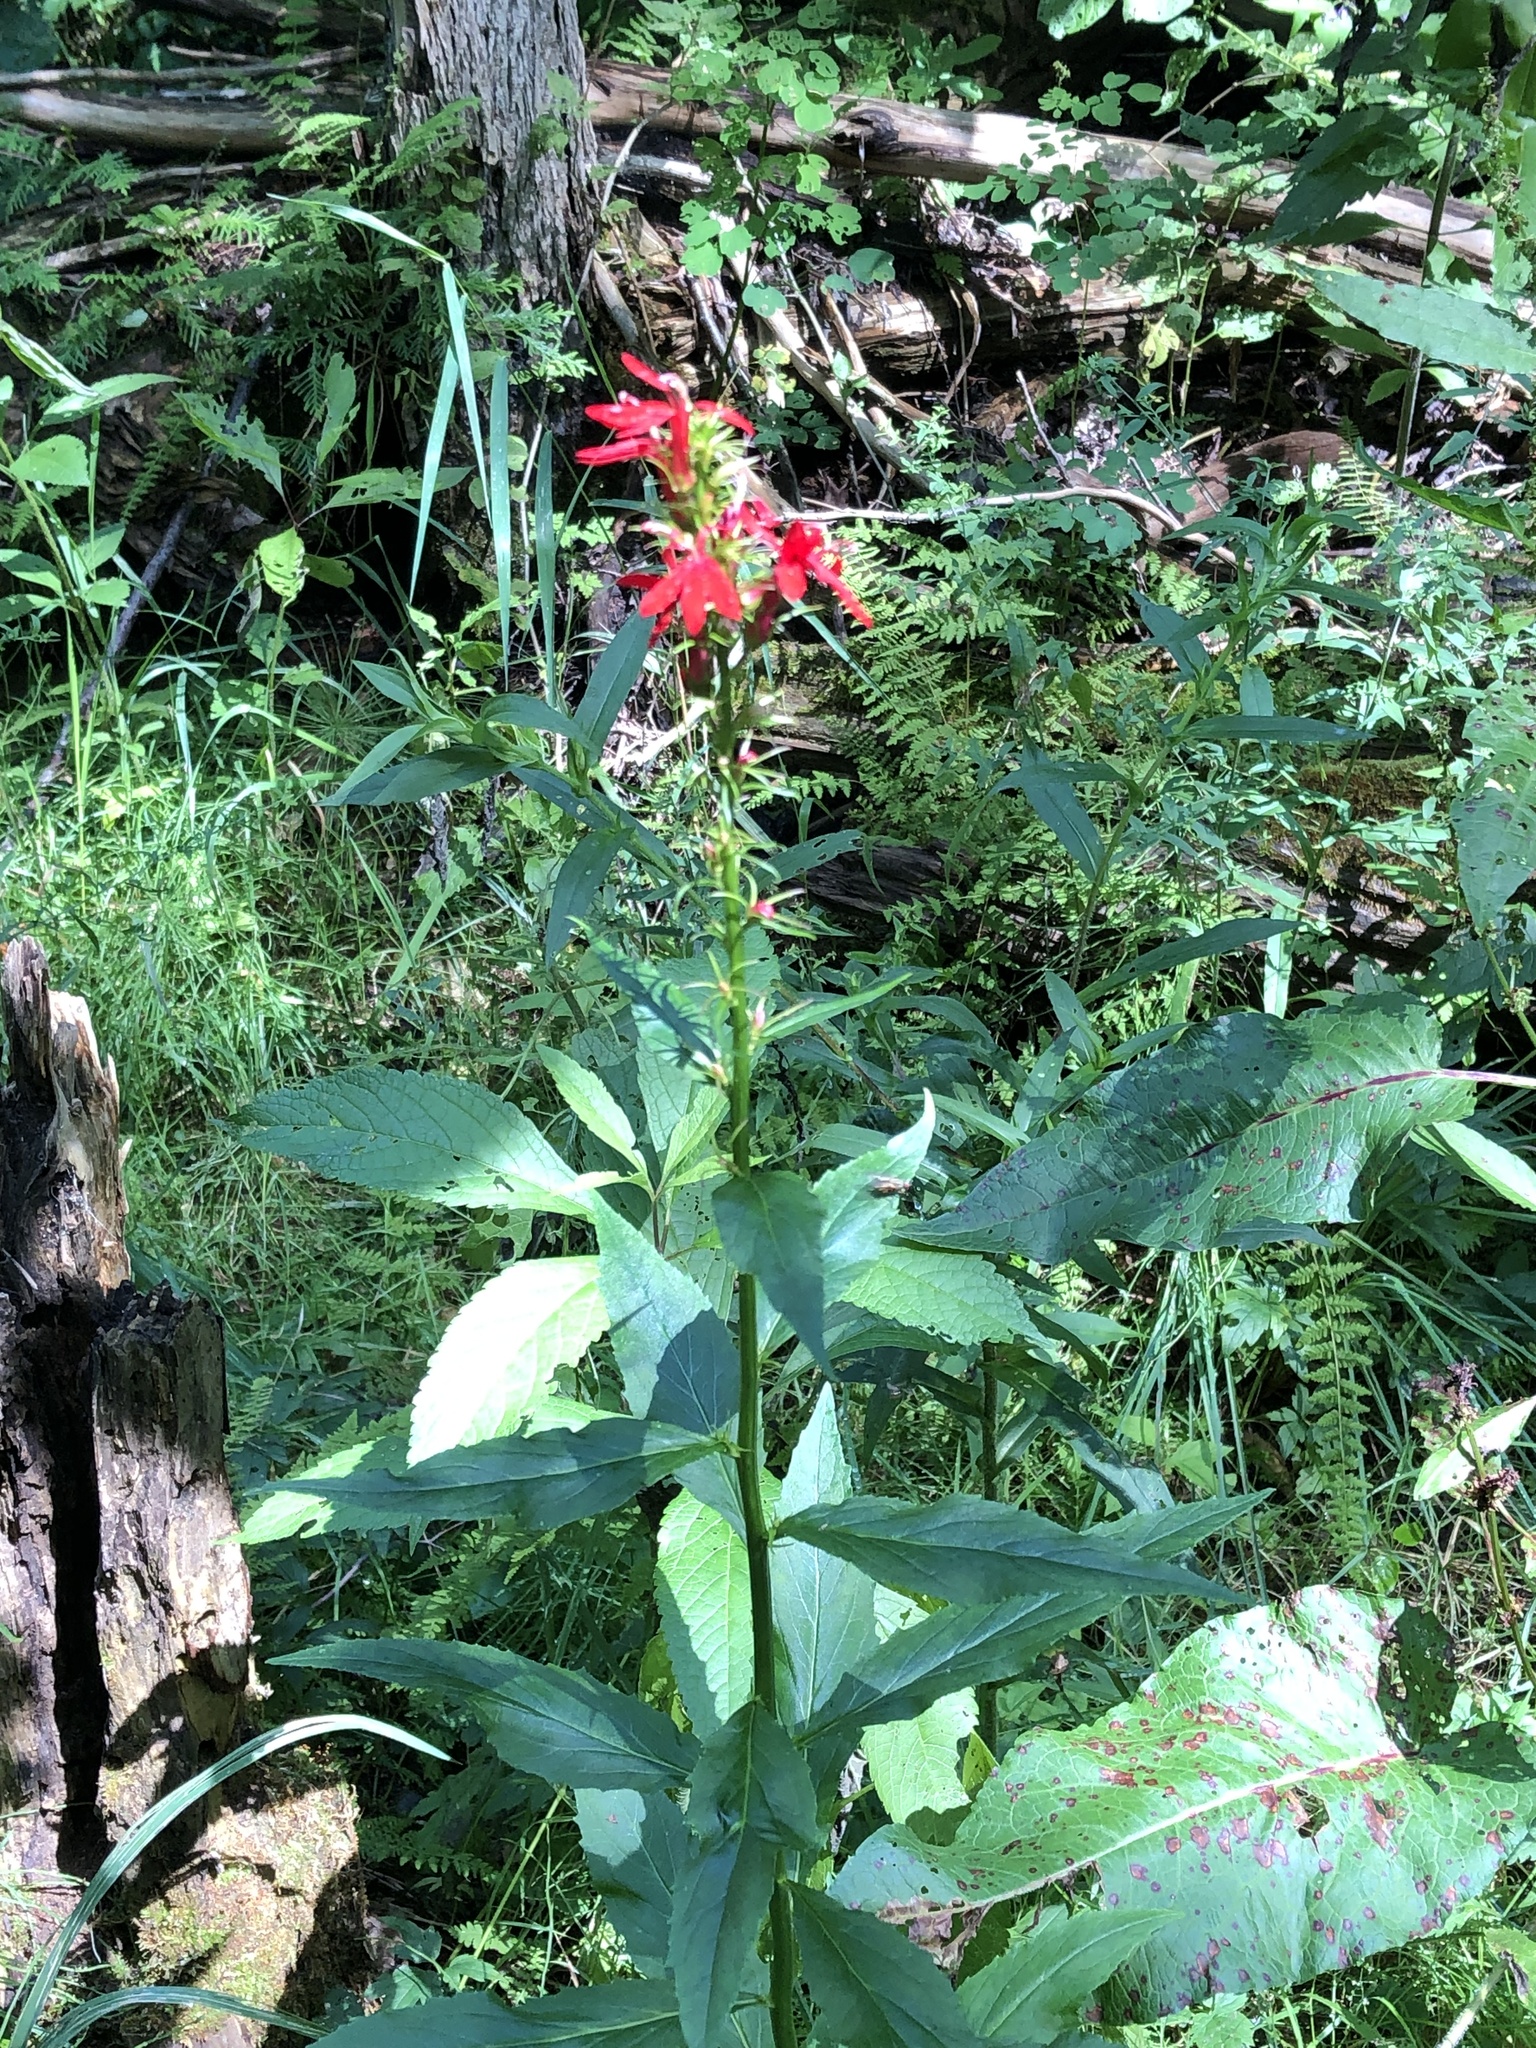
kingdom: Plantae
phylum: Tracheophyta
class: Magnoliopsida
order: Asterales
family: Campanulaceae
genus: Lobelia
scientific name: Lobelia cardinalis
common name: Cardinal flower
